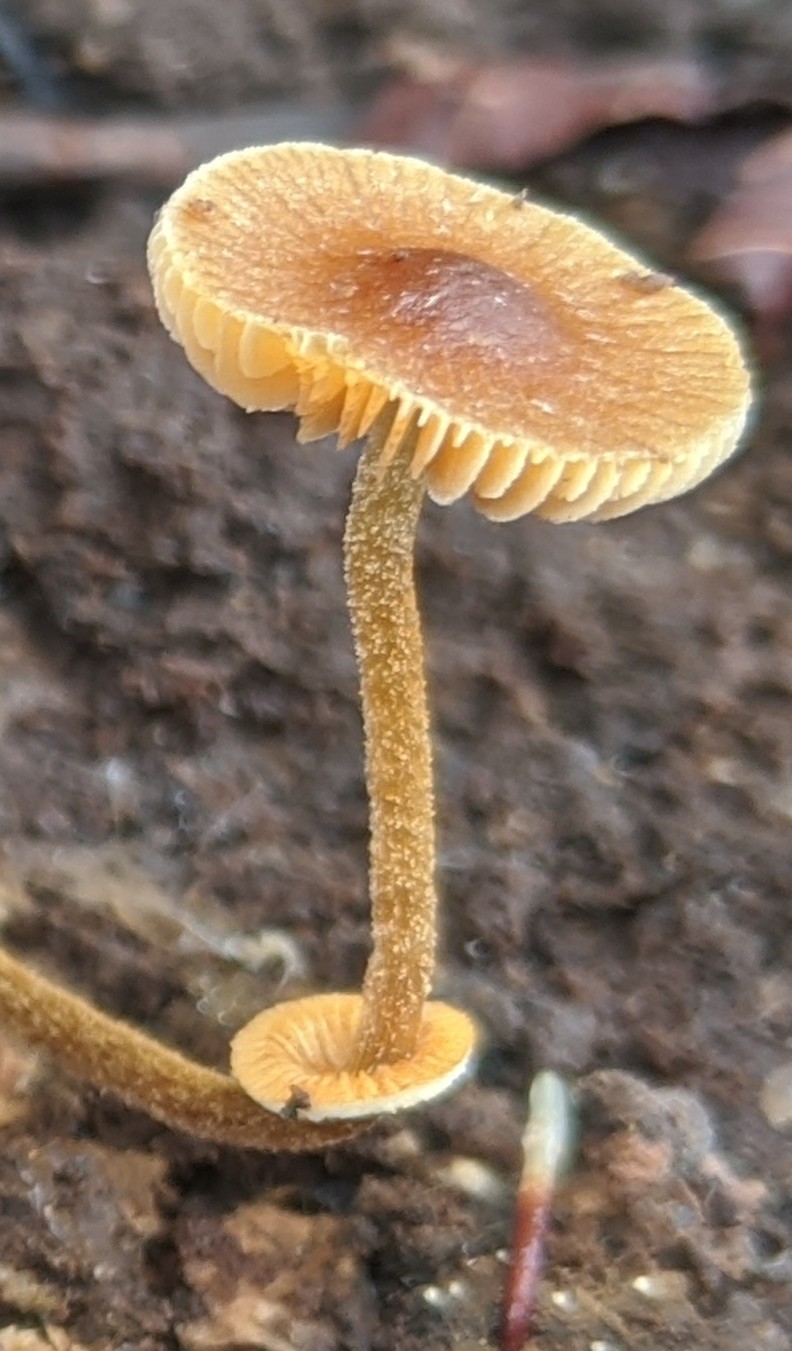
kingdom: Fungi
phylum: Basidiomycota
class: Agaricomycetes
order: Agaricales
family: Bolbitiaceae
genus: Conocybe
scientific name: Conocybe rugosa
